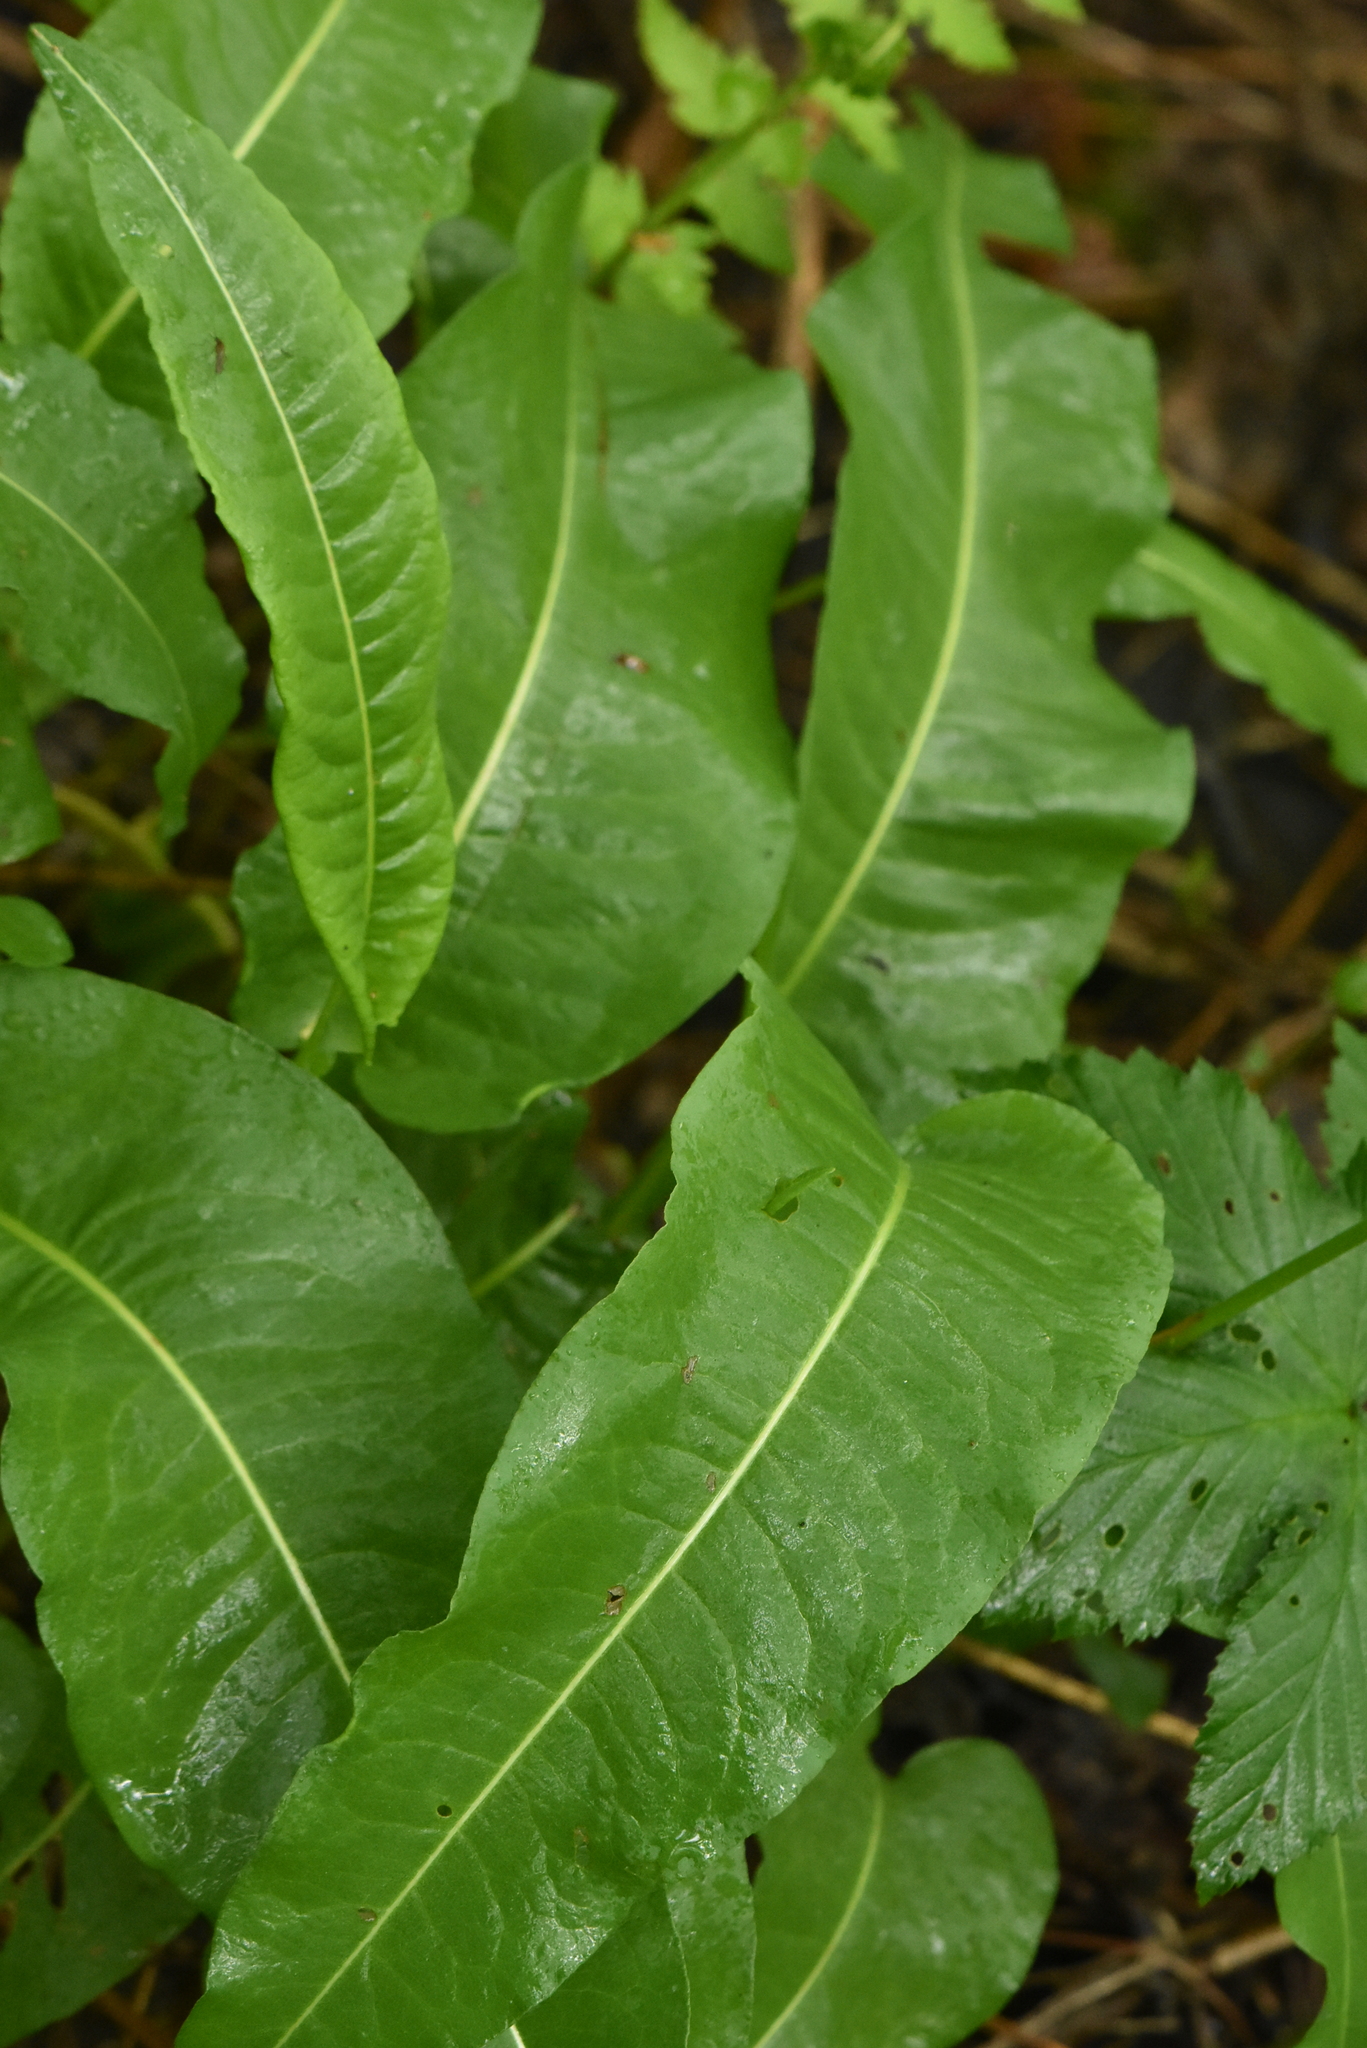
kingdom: Plantae
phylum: Tracheophyta
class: Magnoliopsida
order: Caryophyllales
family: Polygonaceae
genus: Bistorta
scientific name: Bistorta officinalis
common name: Common bistort
